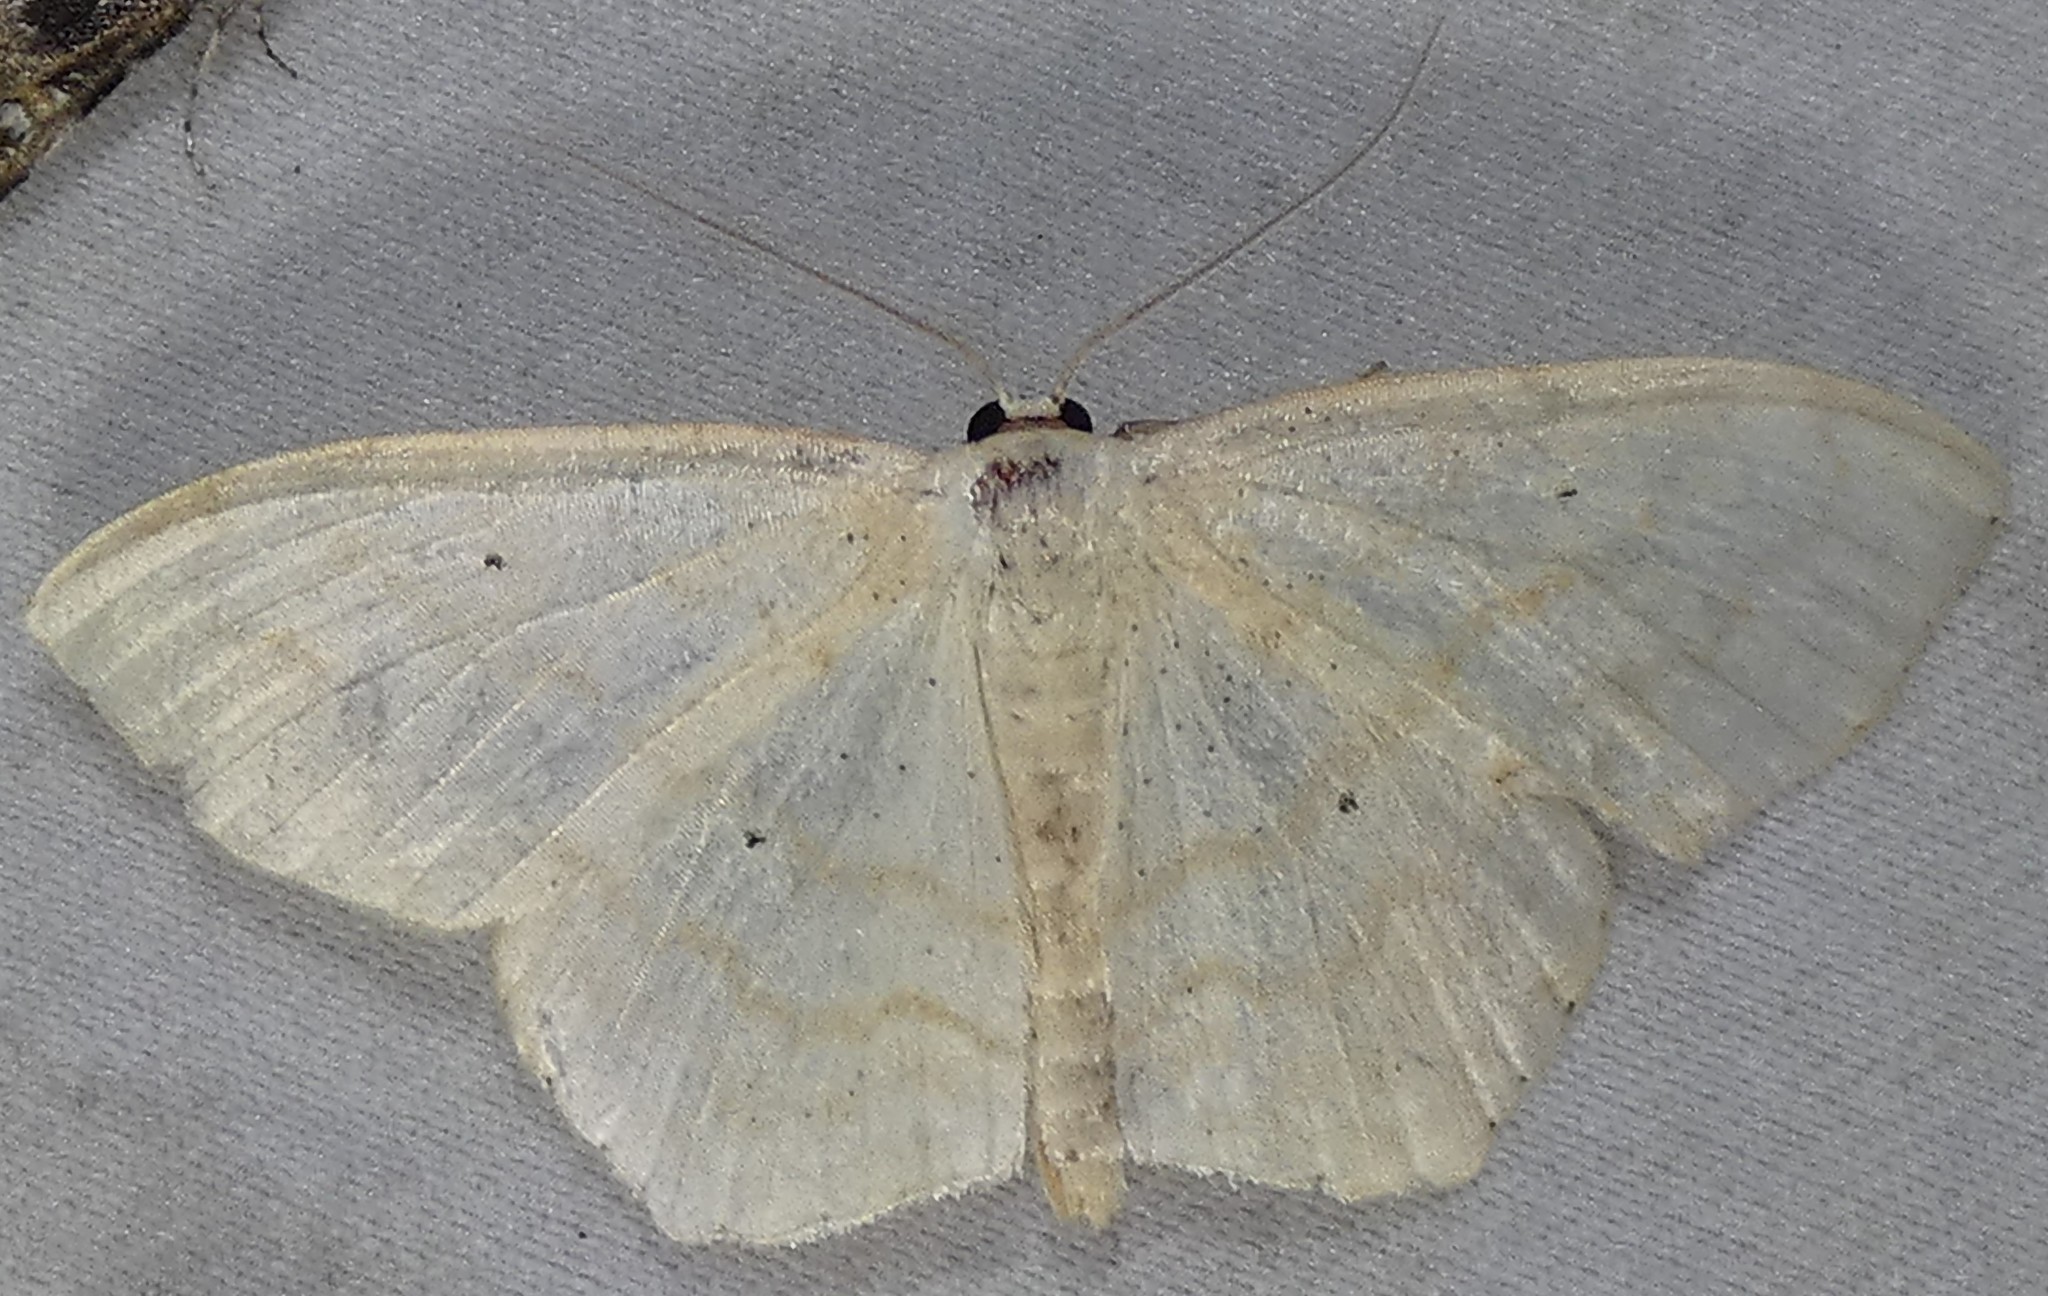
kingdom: Animalia
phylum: Arthropoda
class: Insecta
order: Lepidoptera
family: Geometridae
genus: Scopula
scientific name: Scopula limboundata
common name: Large lace border
